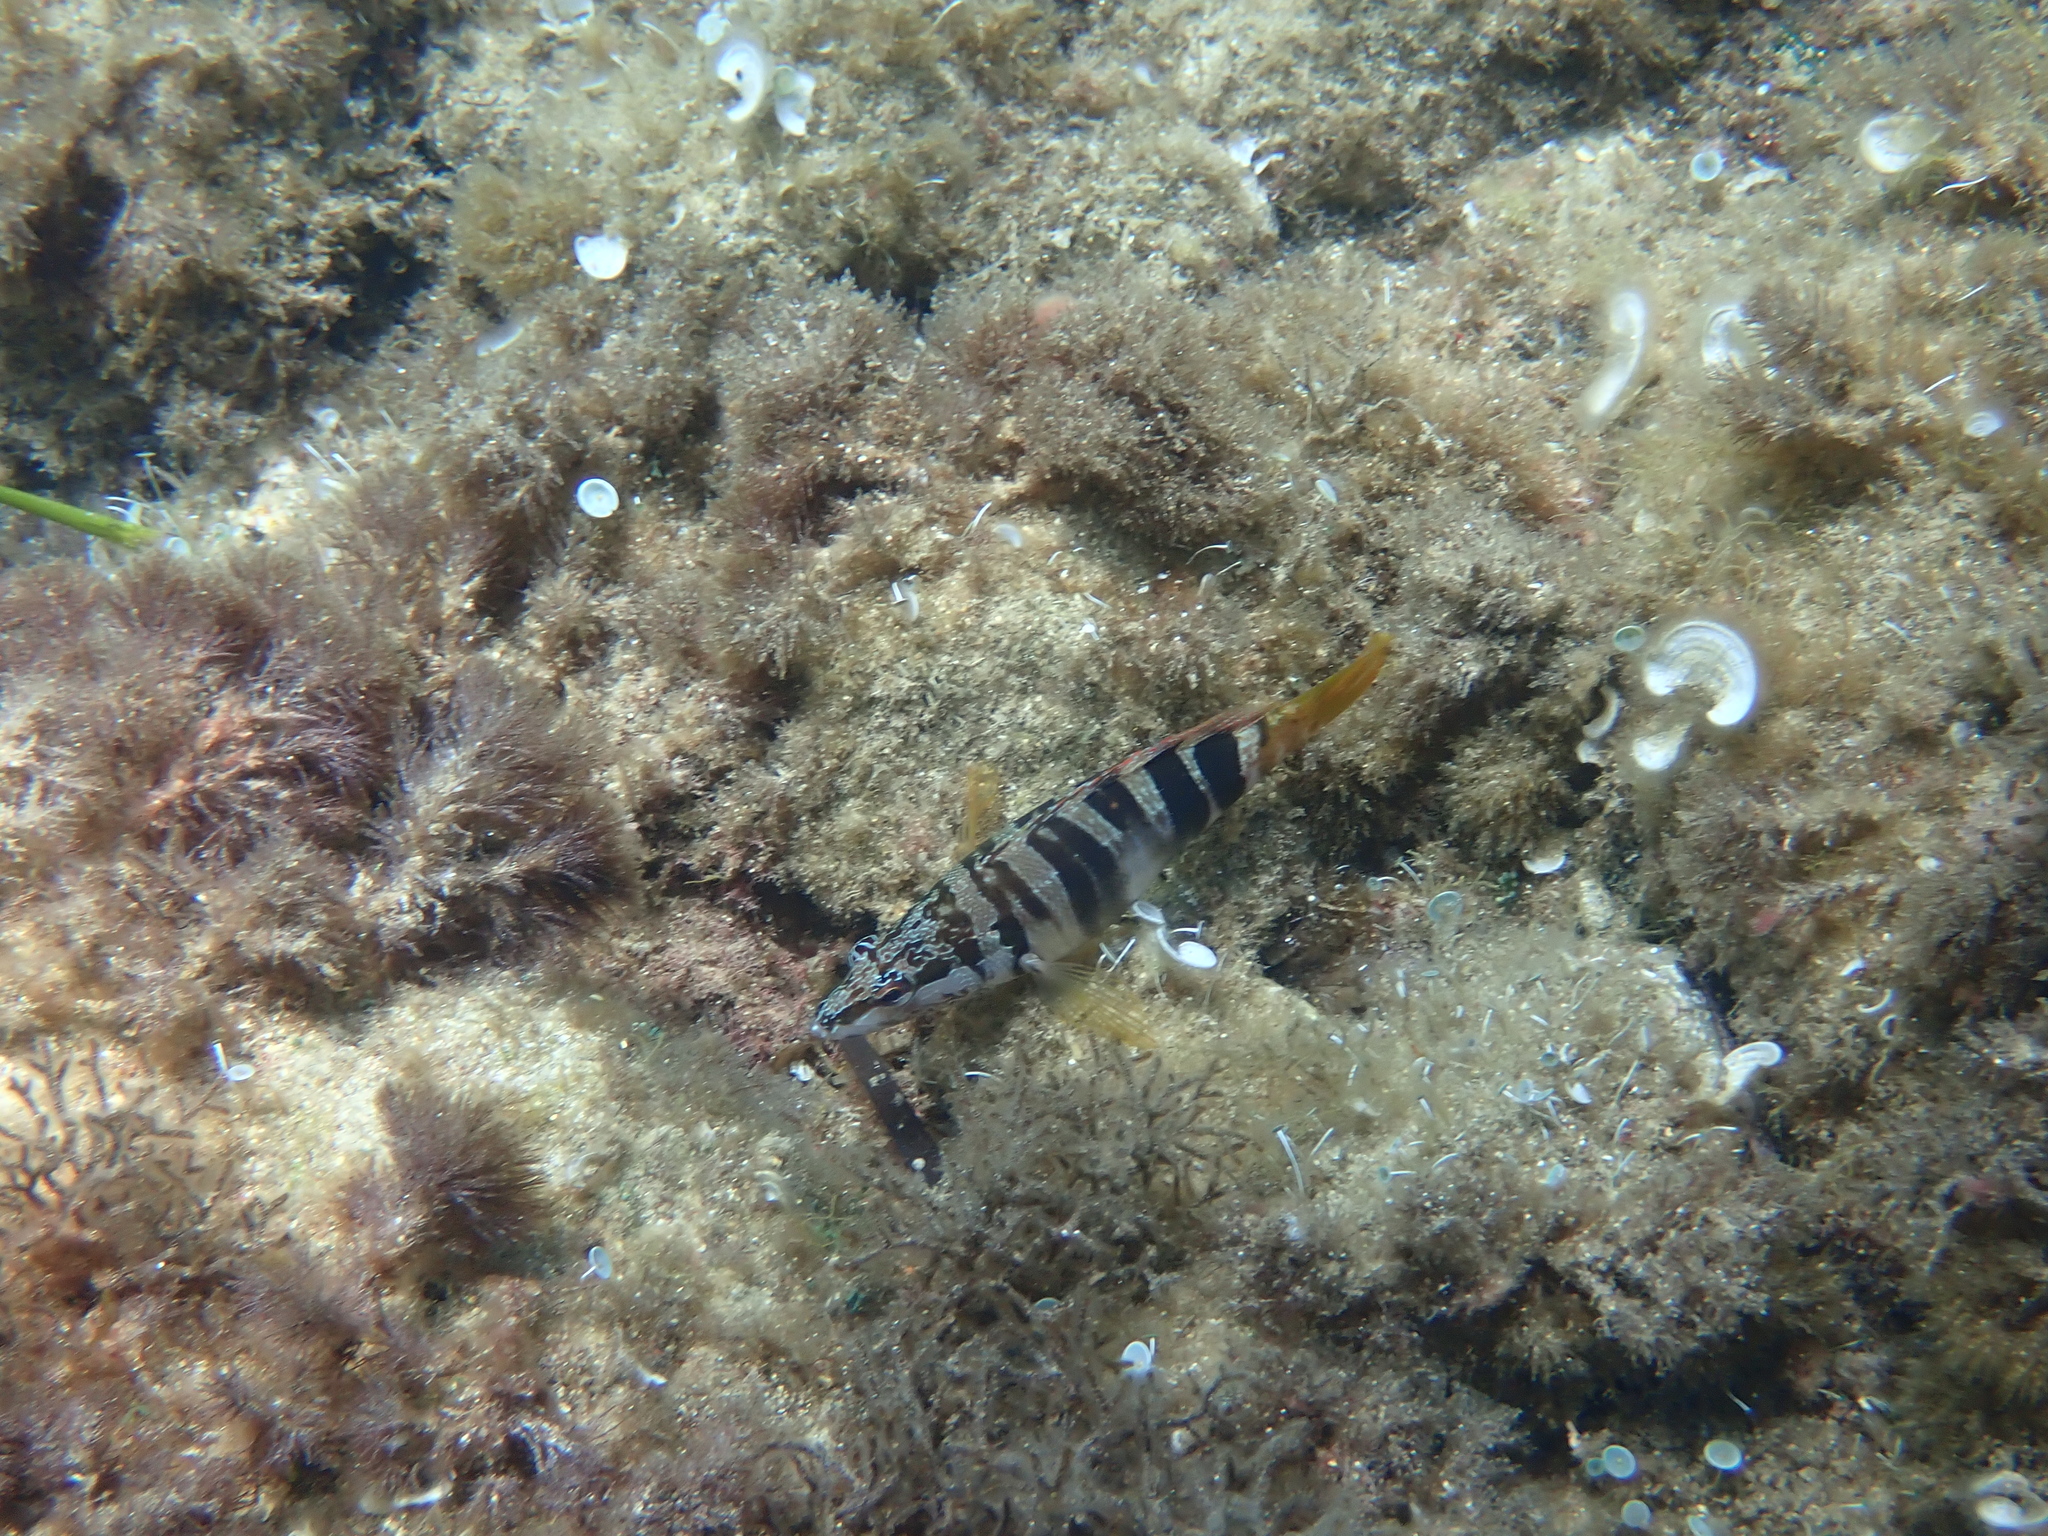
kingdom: Animalia
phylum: Chordata
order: Perciformes
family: Serranidae
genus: Serranus
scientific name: Serranus scriba
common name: Painted comber
